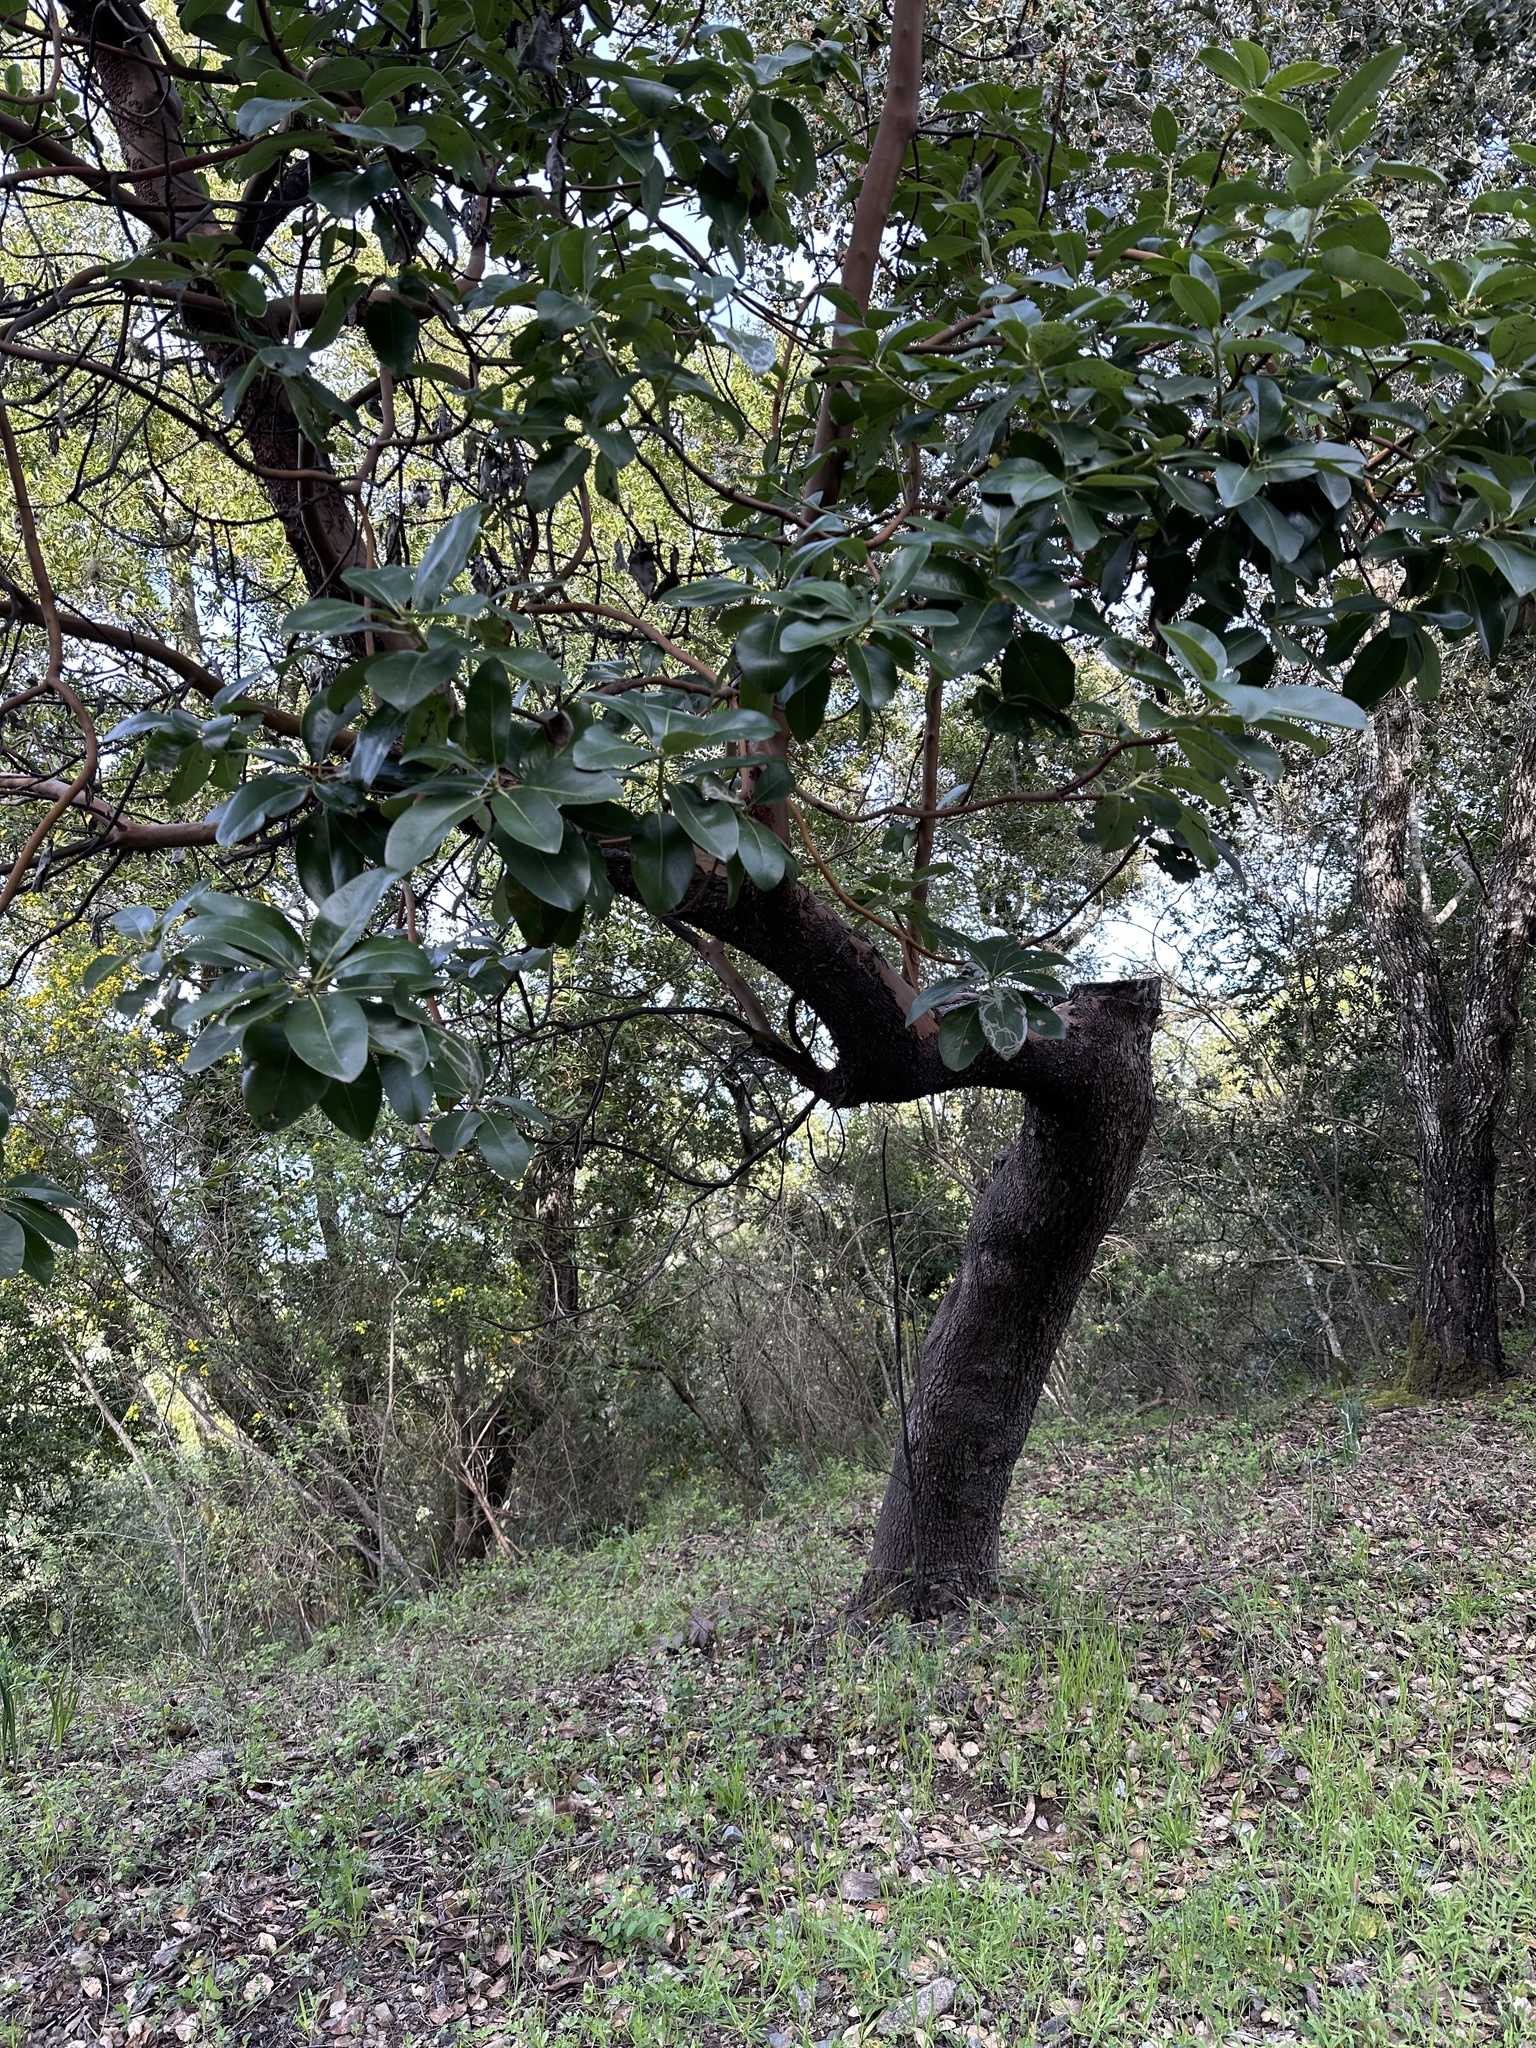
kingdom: Animalia
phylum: Arthropoda
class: Insecta
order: Lepidoptera
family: Gracillariidae
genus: Marmara
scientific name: Marmara arbutiella
